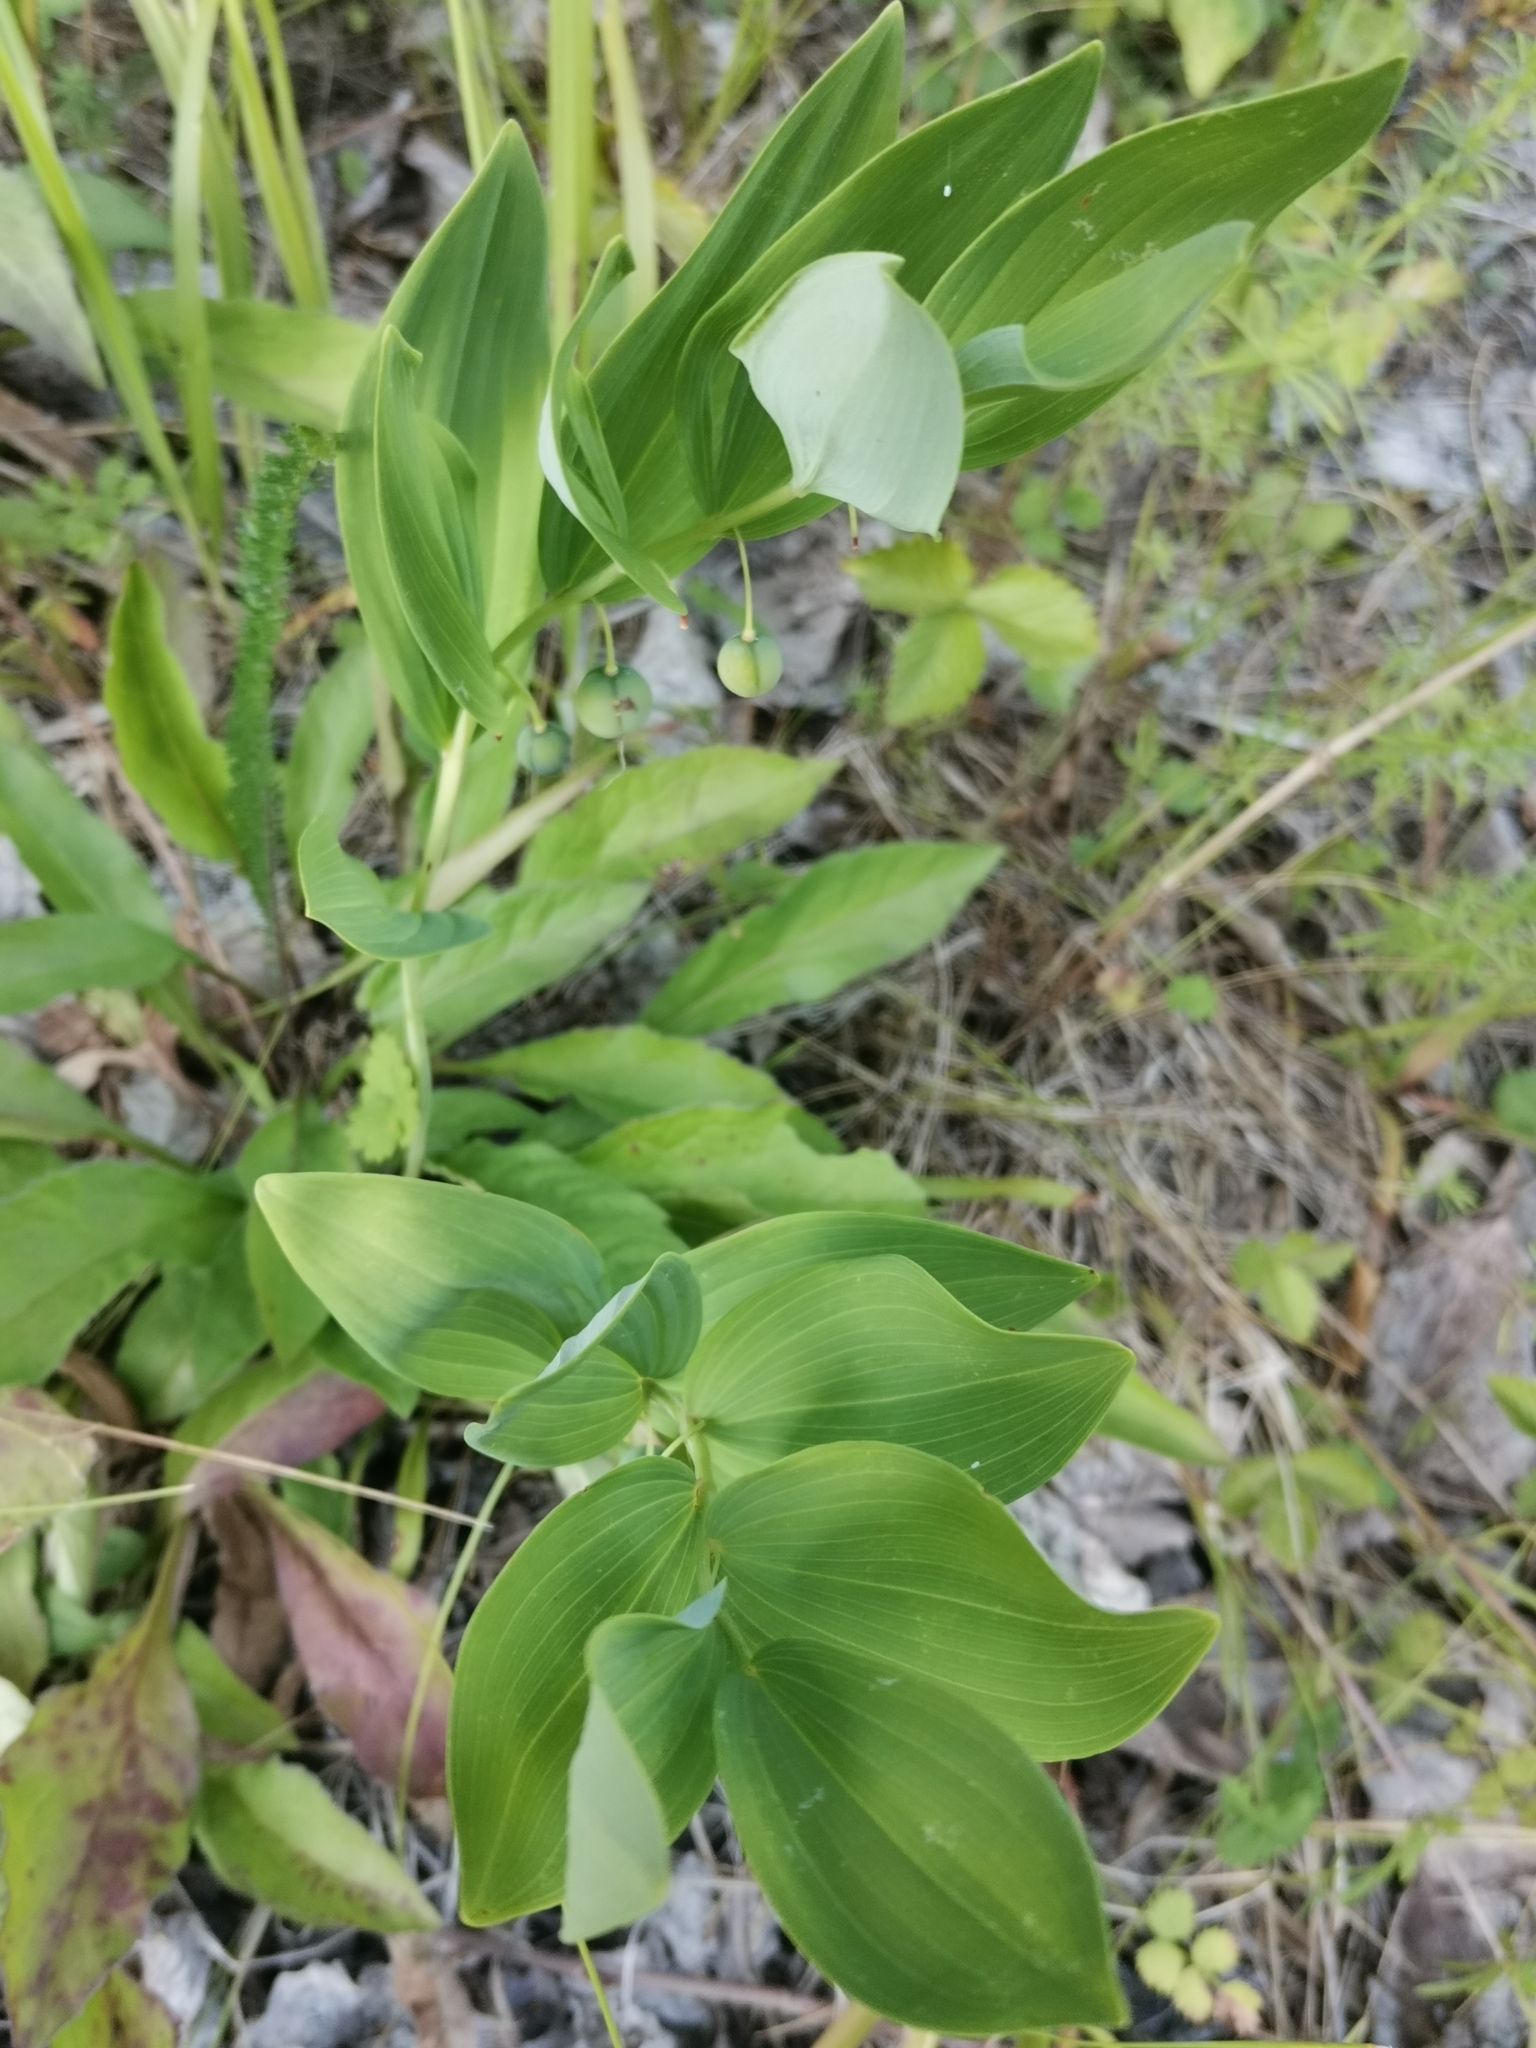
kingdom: Plantae
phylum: Tracheophyta
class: Liliopsida
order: Asparagales
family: Asparagaceae
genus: Polygonatum
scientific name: Polygonatum odoratum
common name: Angular solomon's-seal
